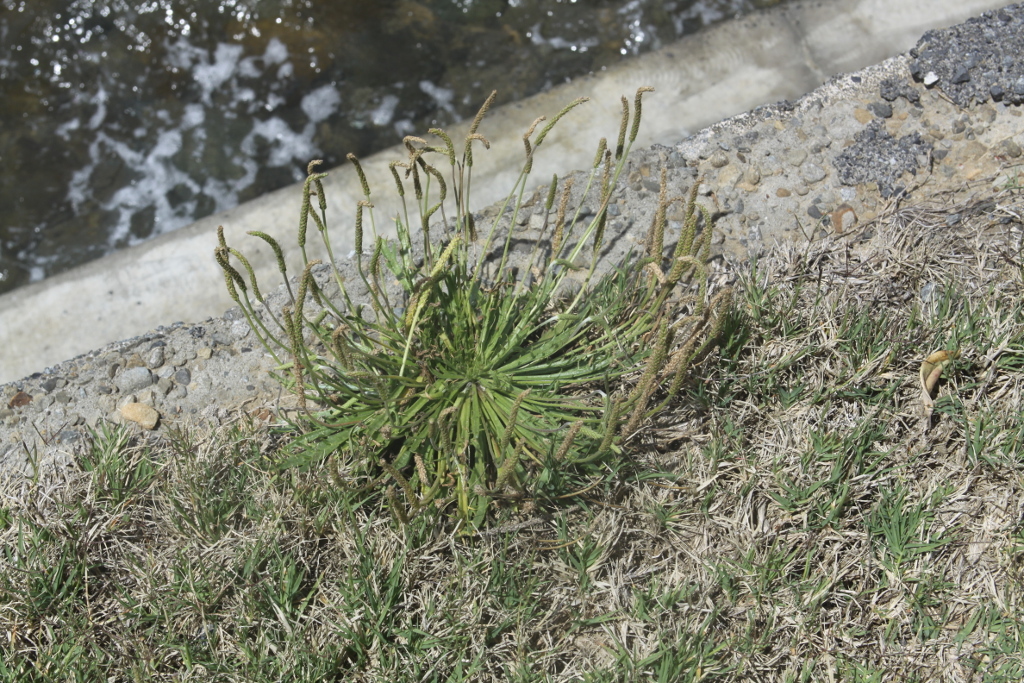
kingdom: Plantae
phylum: Tracheophyta
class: Magnoliopsida
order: Lamiales
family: Plantaginaceae
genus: Plantago
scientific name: Plantago coronopus
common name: Buck's-horn plantain
